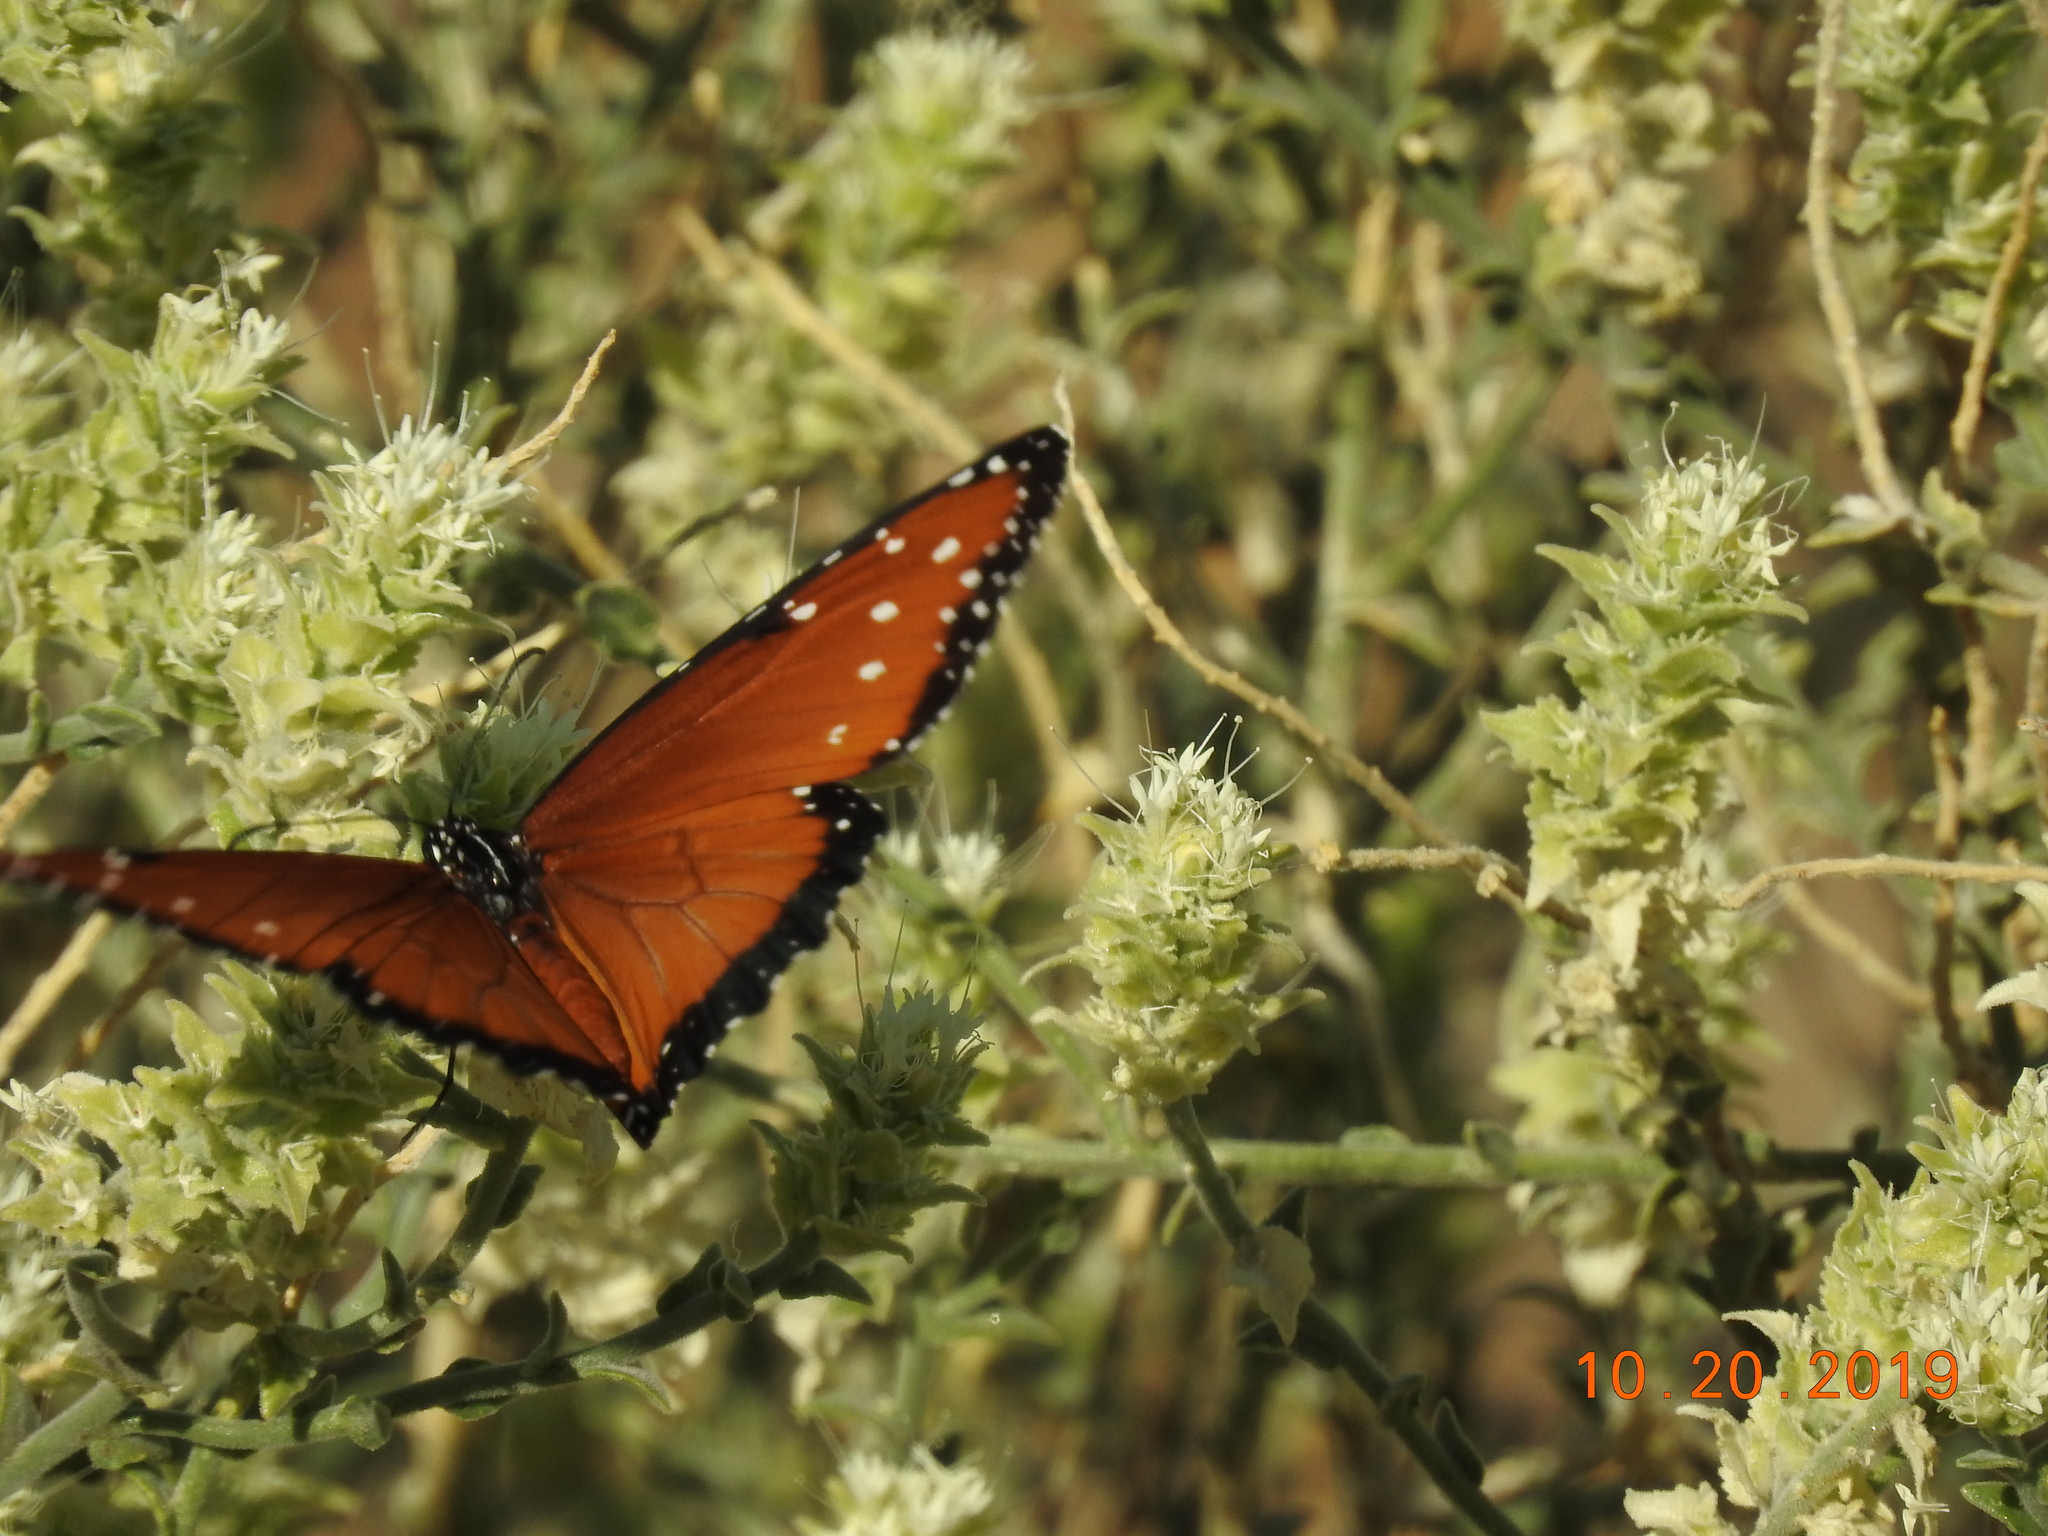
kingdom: Animalia
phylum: Arthropoda
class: Insecta
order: Lepidoptera
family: Nymphalidae
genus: Danaus
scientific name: Danaus gilippus
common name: Queen
